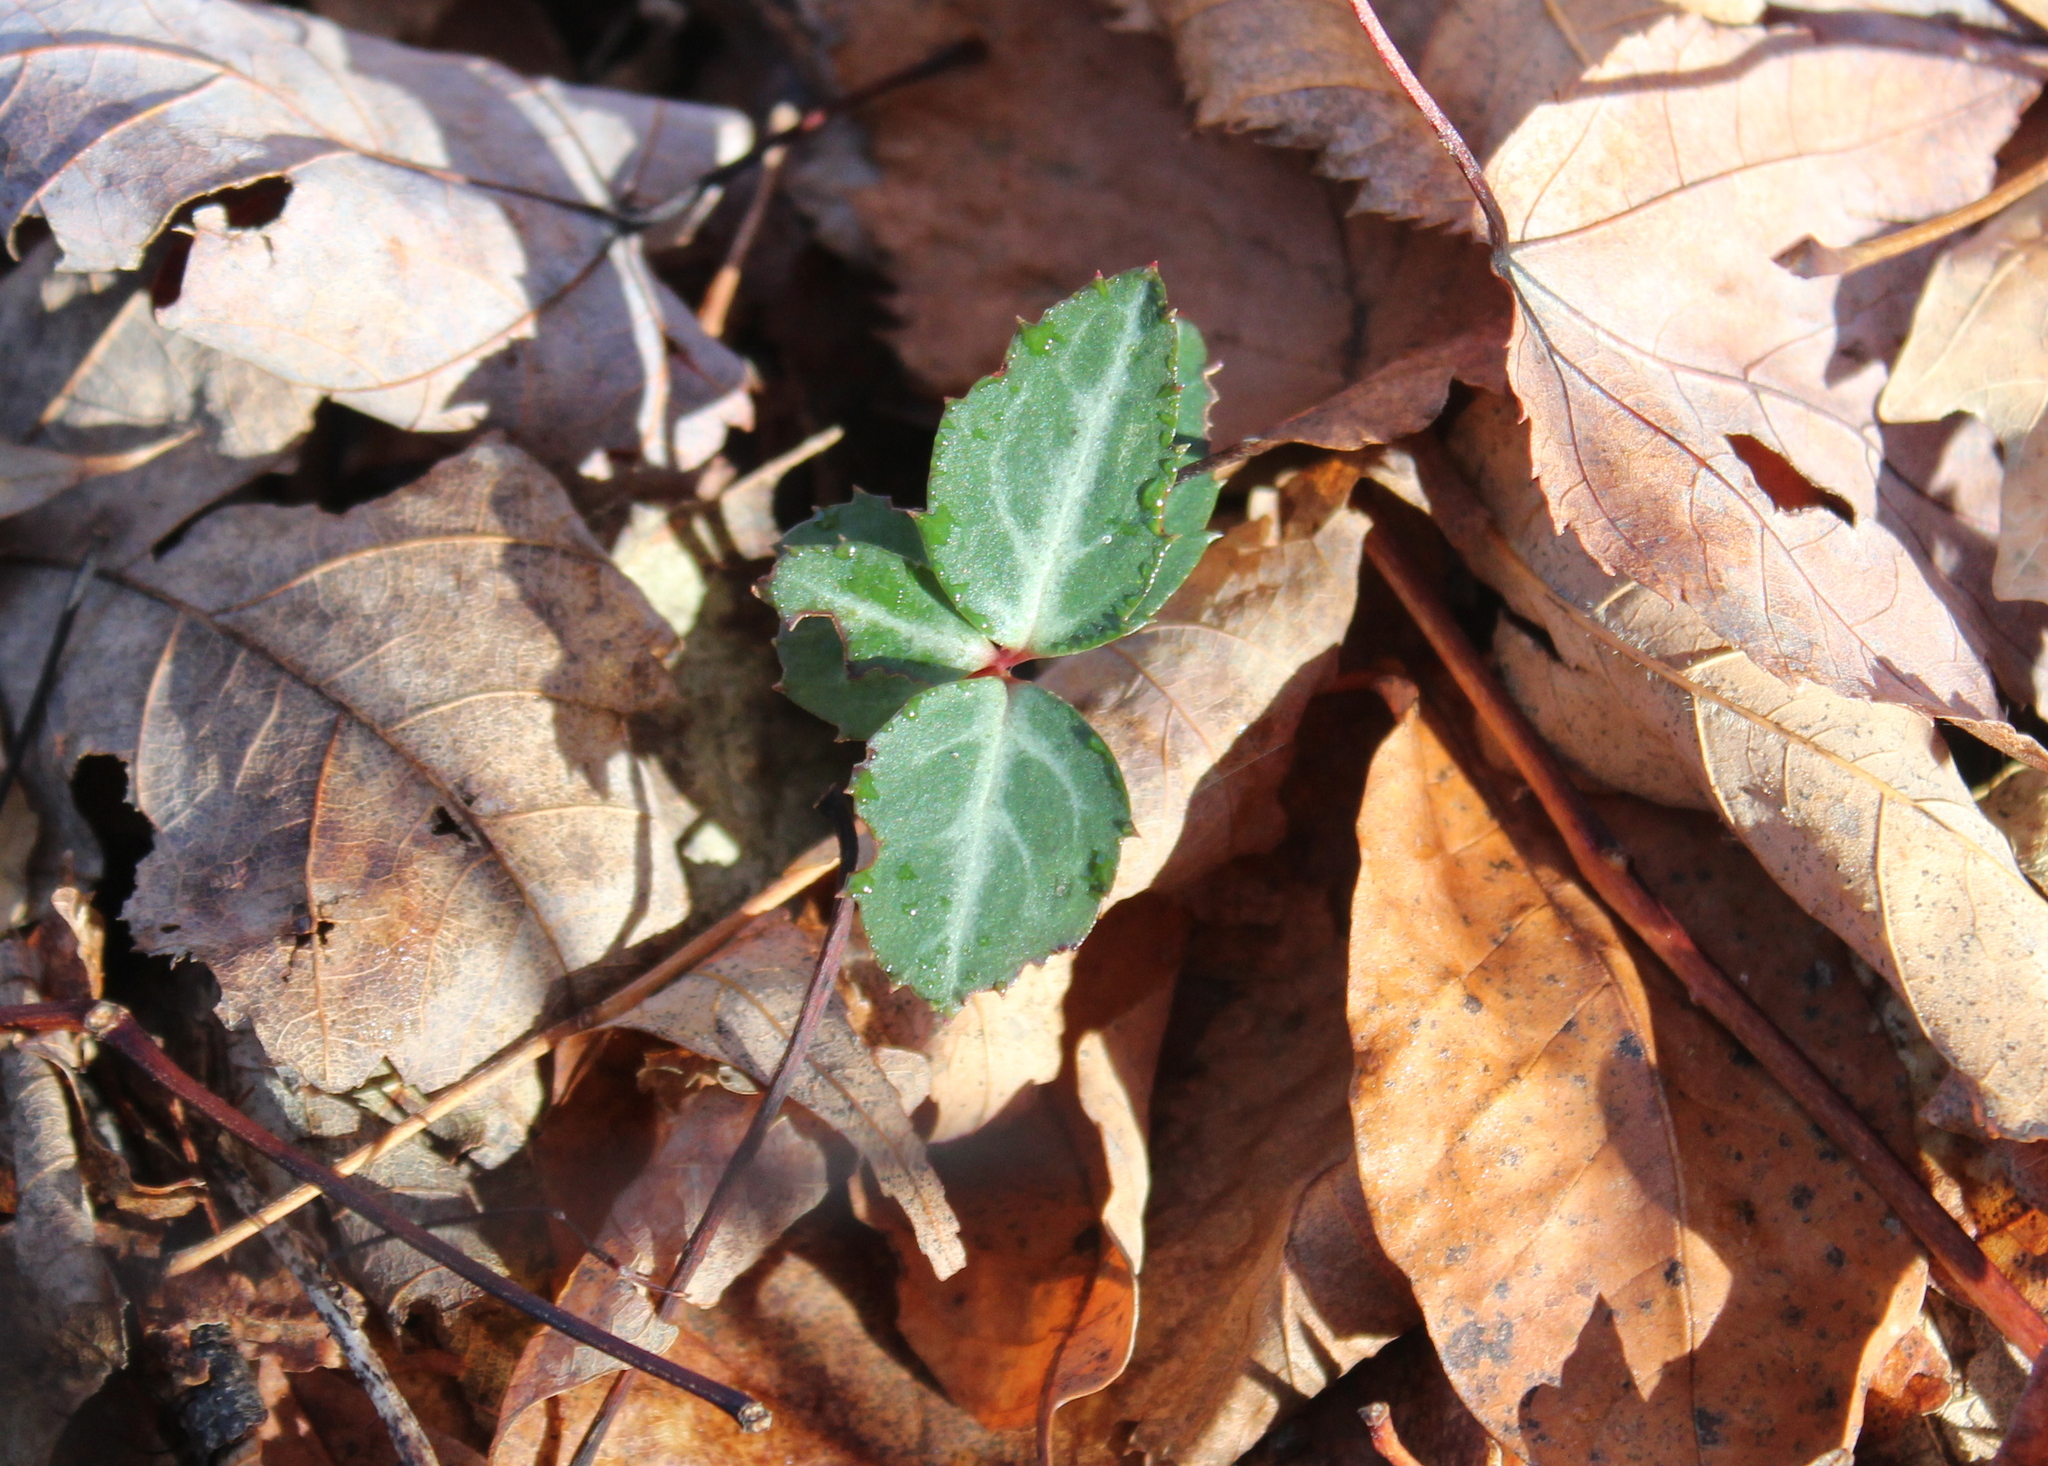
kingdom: Plantae
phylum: Tracheophyta
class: Magnoliopsida
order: Ericales
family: Ericaceae
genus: Chimaphila
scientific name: Chimaphila maculata
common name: Spotted pipsissewa
